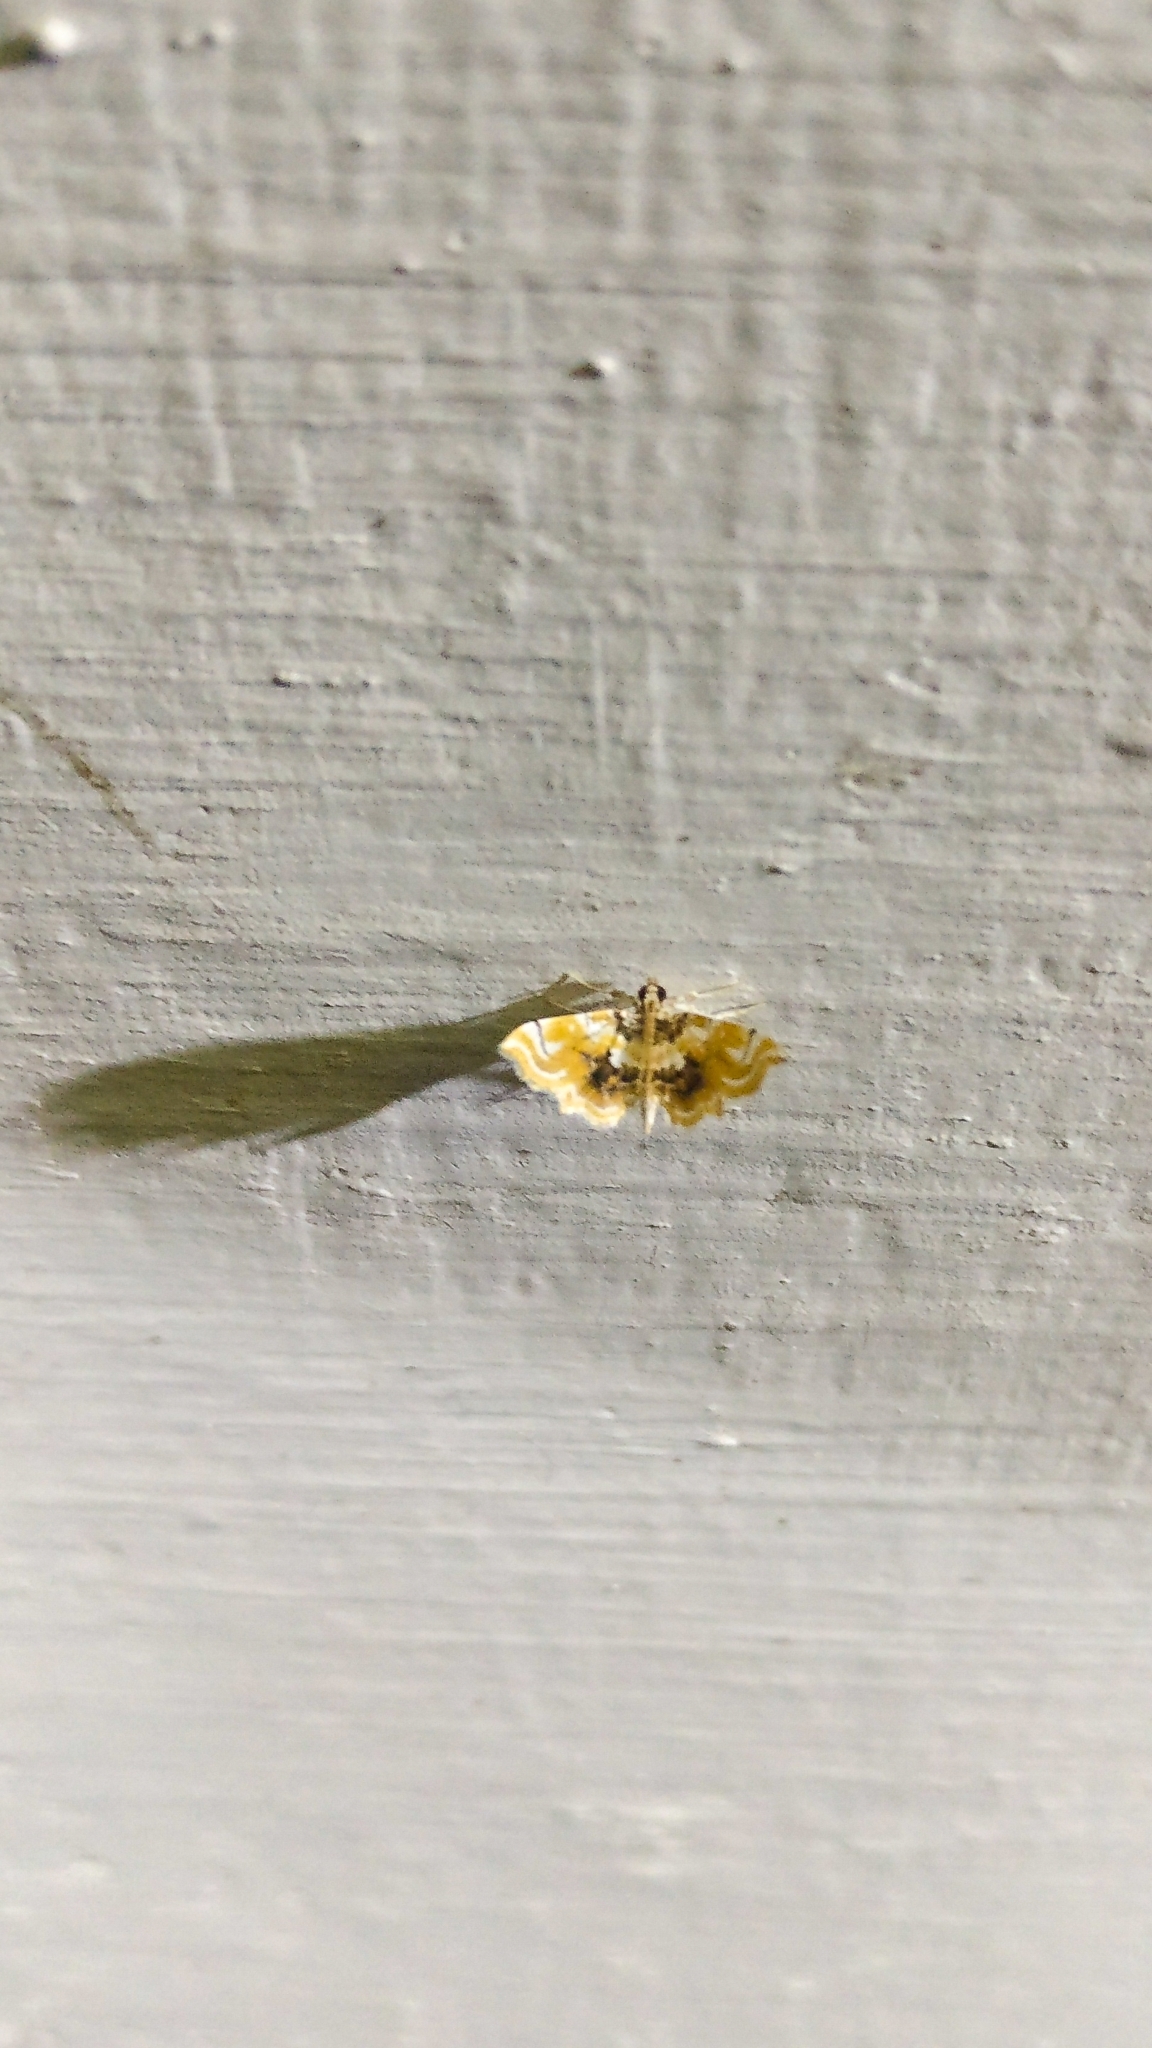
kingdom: Animalia
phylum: Arthropoda
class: Insecta
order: Lepidoptera
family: Pyralidae
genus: Musotima
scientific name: Musotima suffusalis
